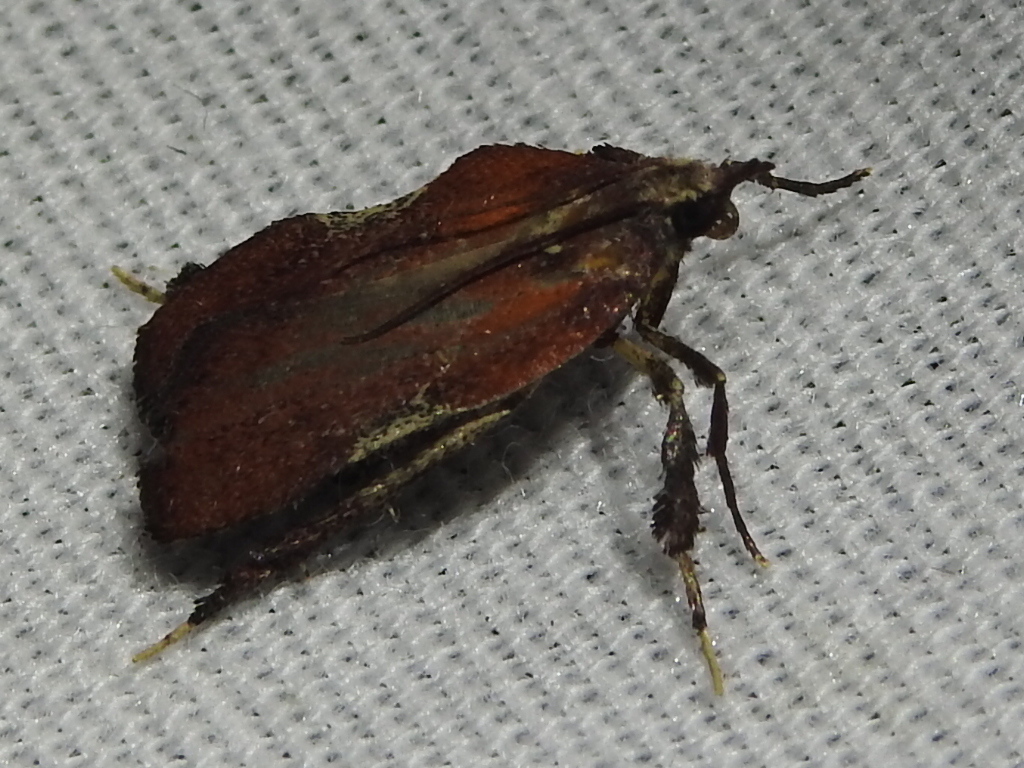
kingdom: Animalia
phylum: Arthropoda
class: Insecta
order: Lepidoptera
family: Pyralidae
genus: Galasa
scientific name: Galasa nigrinodis
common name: Boxwood leaftier moth
